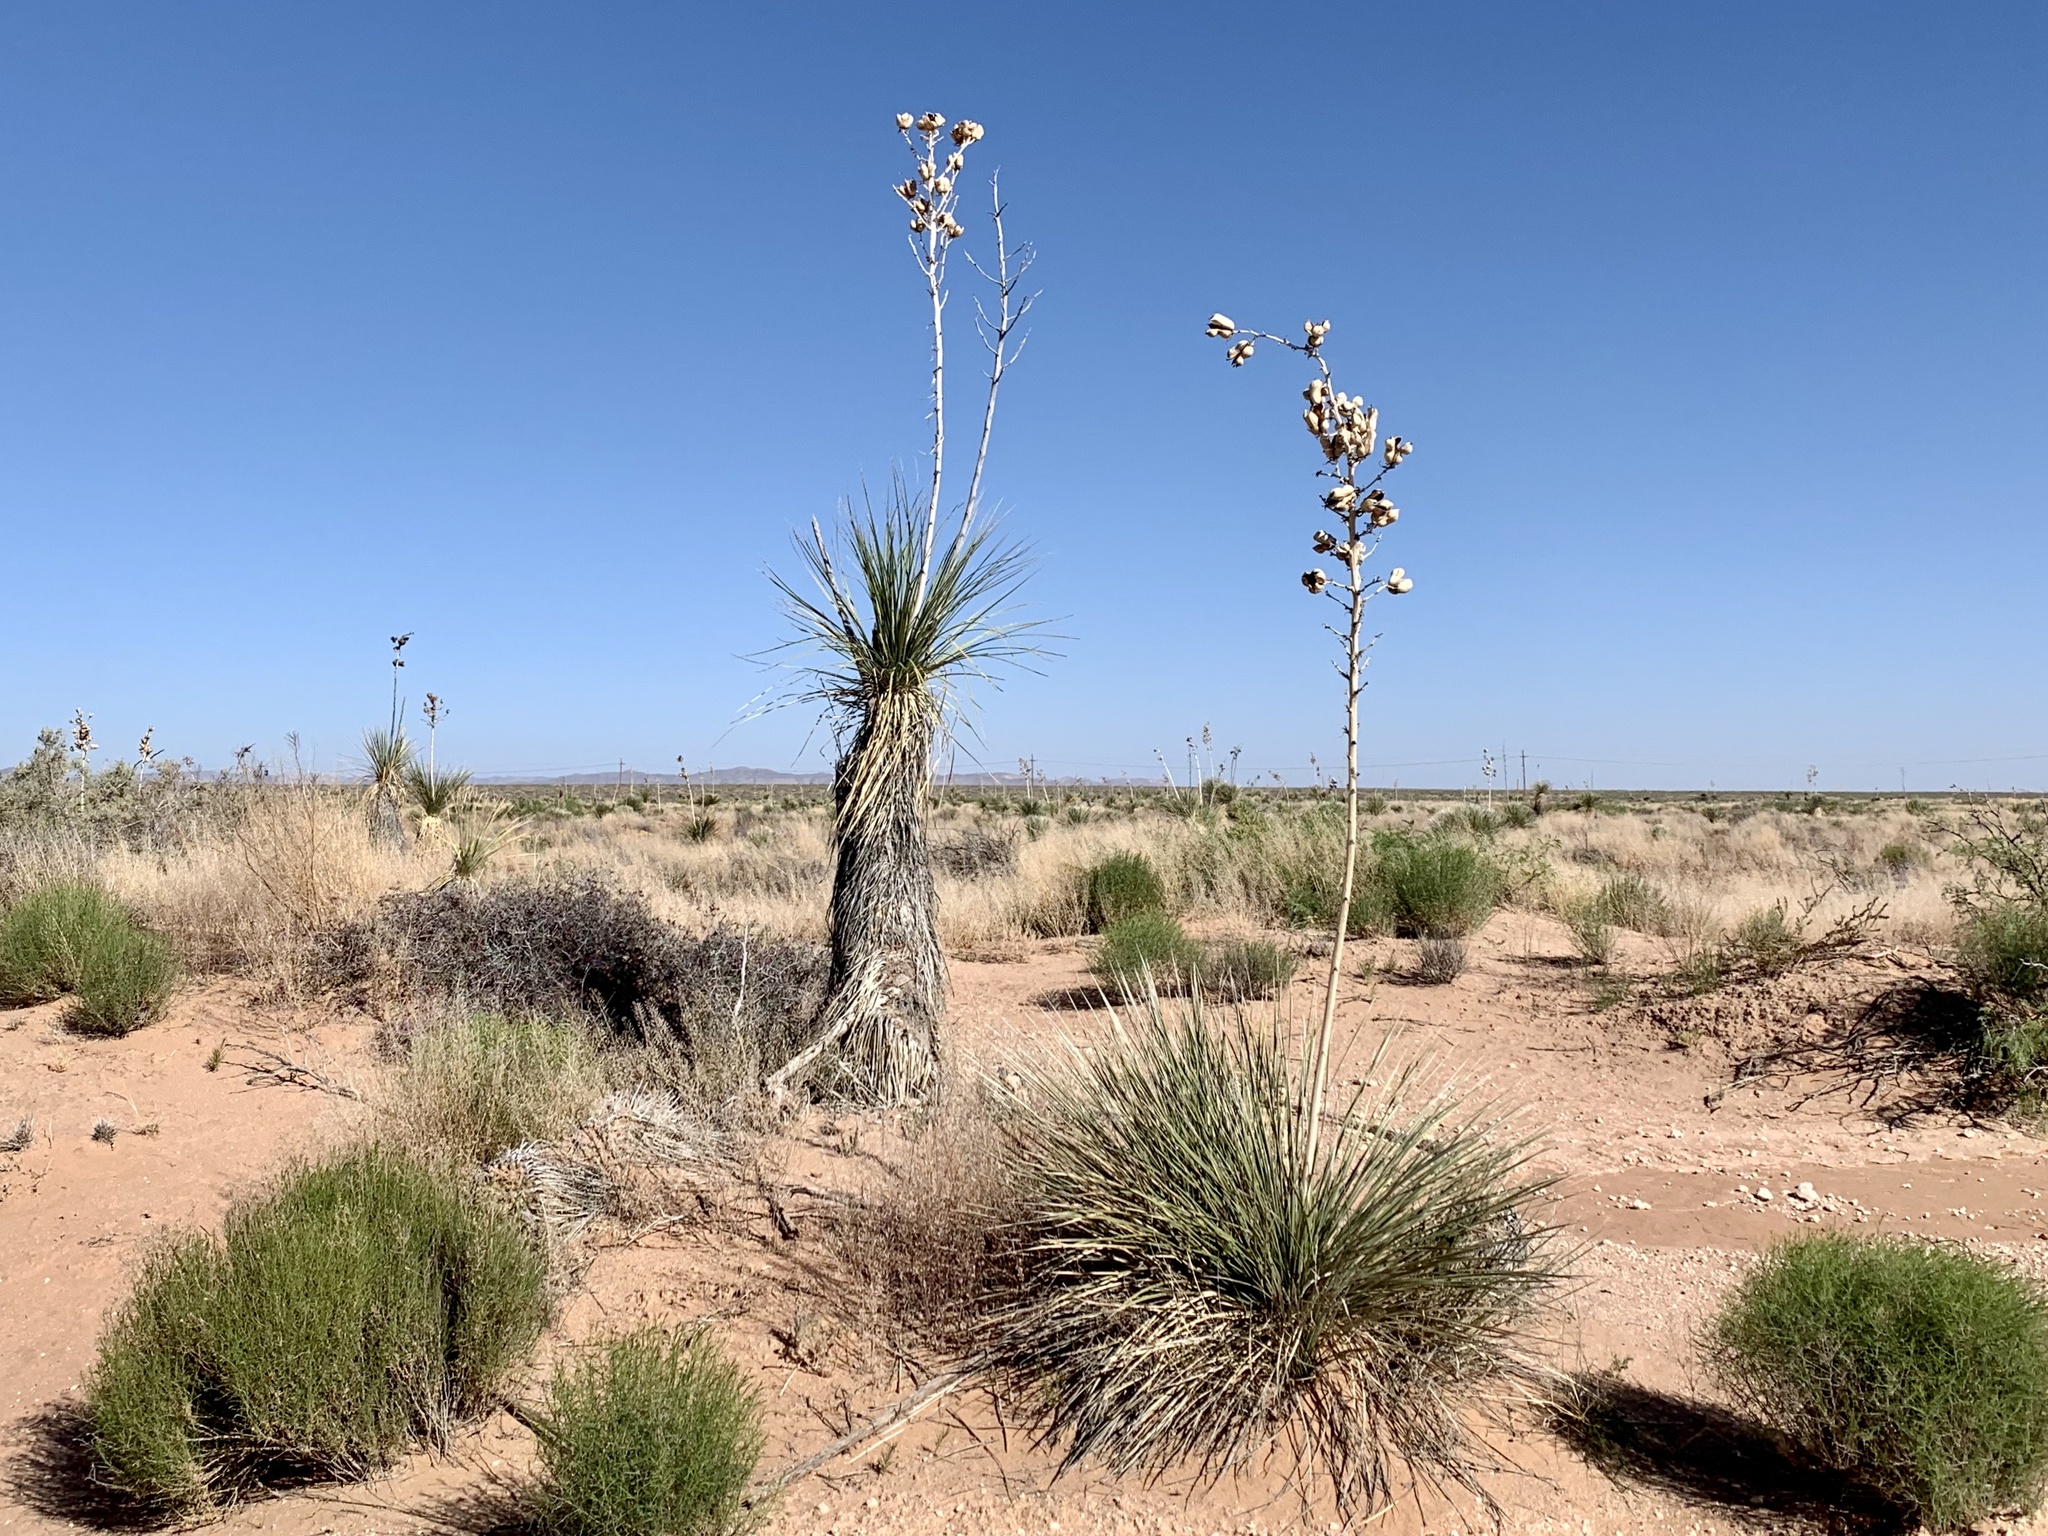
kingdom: Plantae
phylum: Tracheophyta
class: Liliopsida
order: Asparagales
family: Asparagaceae
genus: Yucca
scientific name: Yucca elata
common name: Palmella
